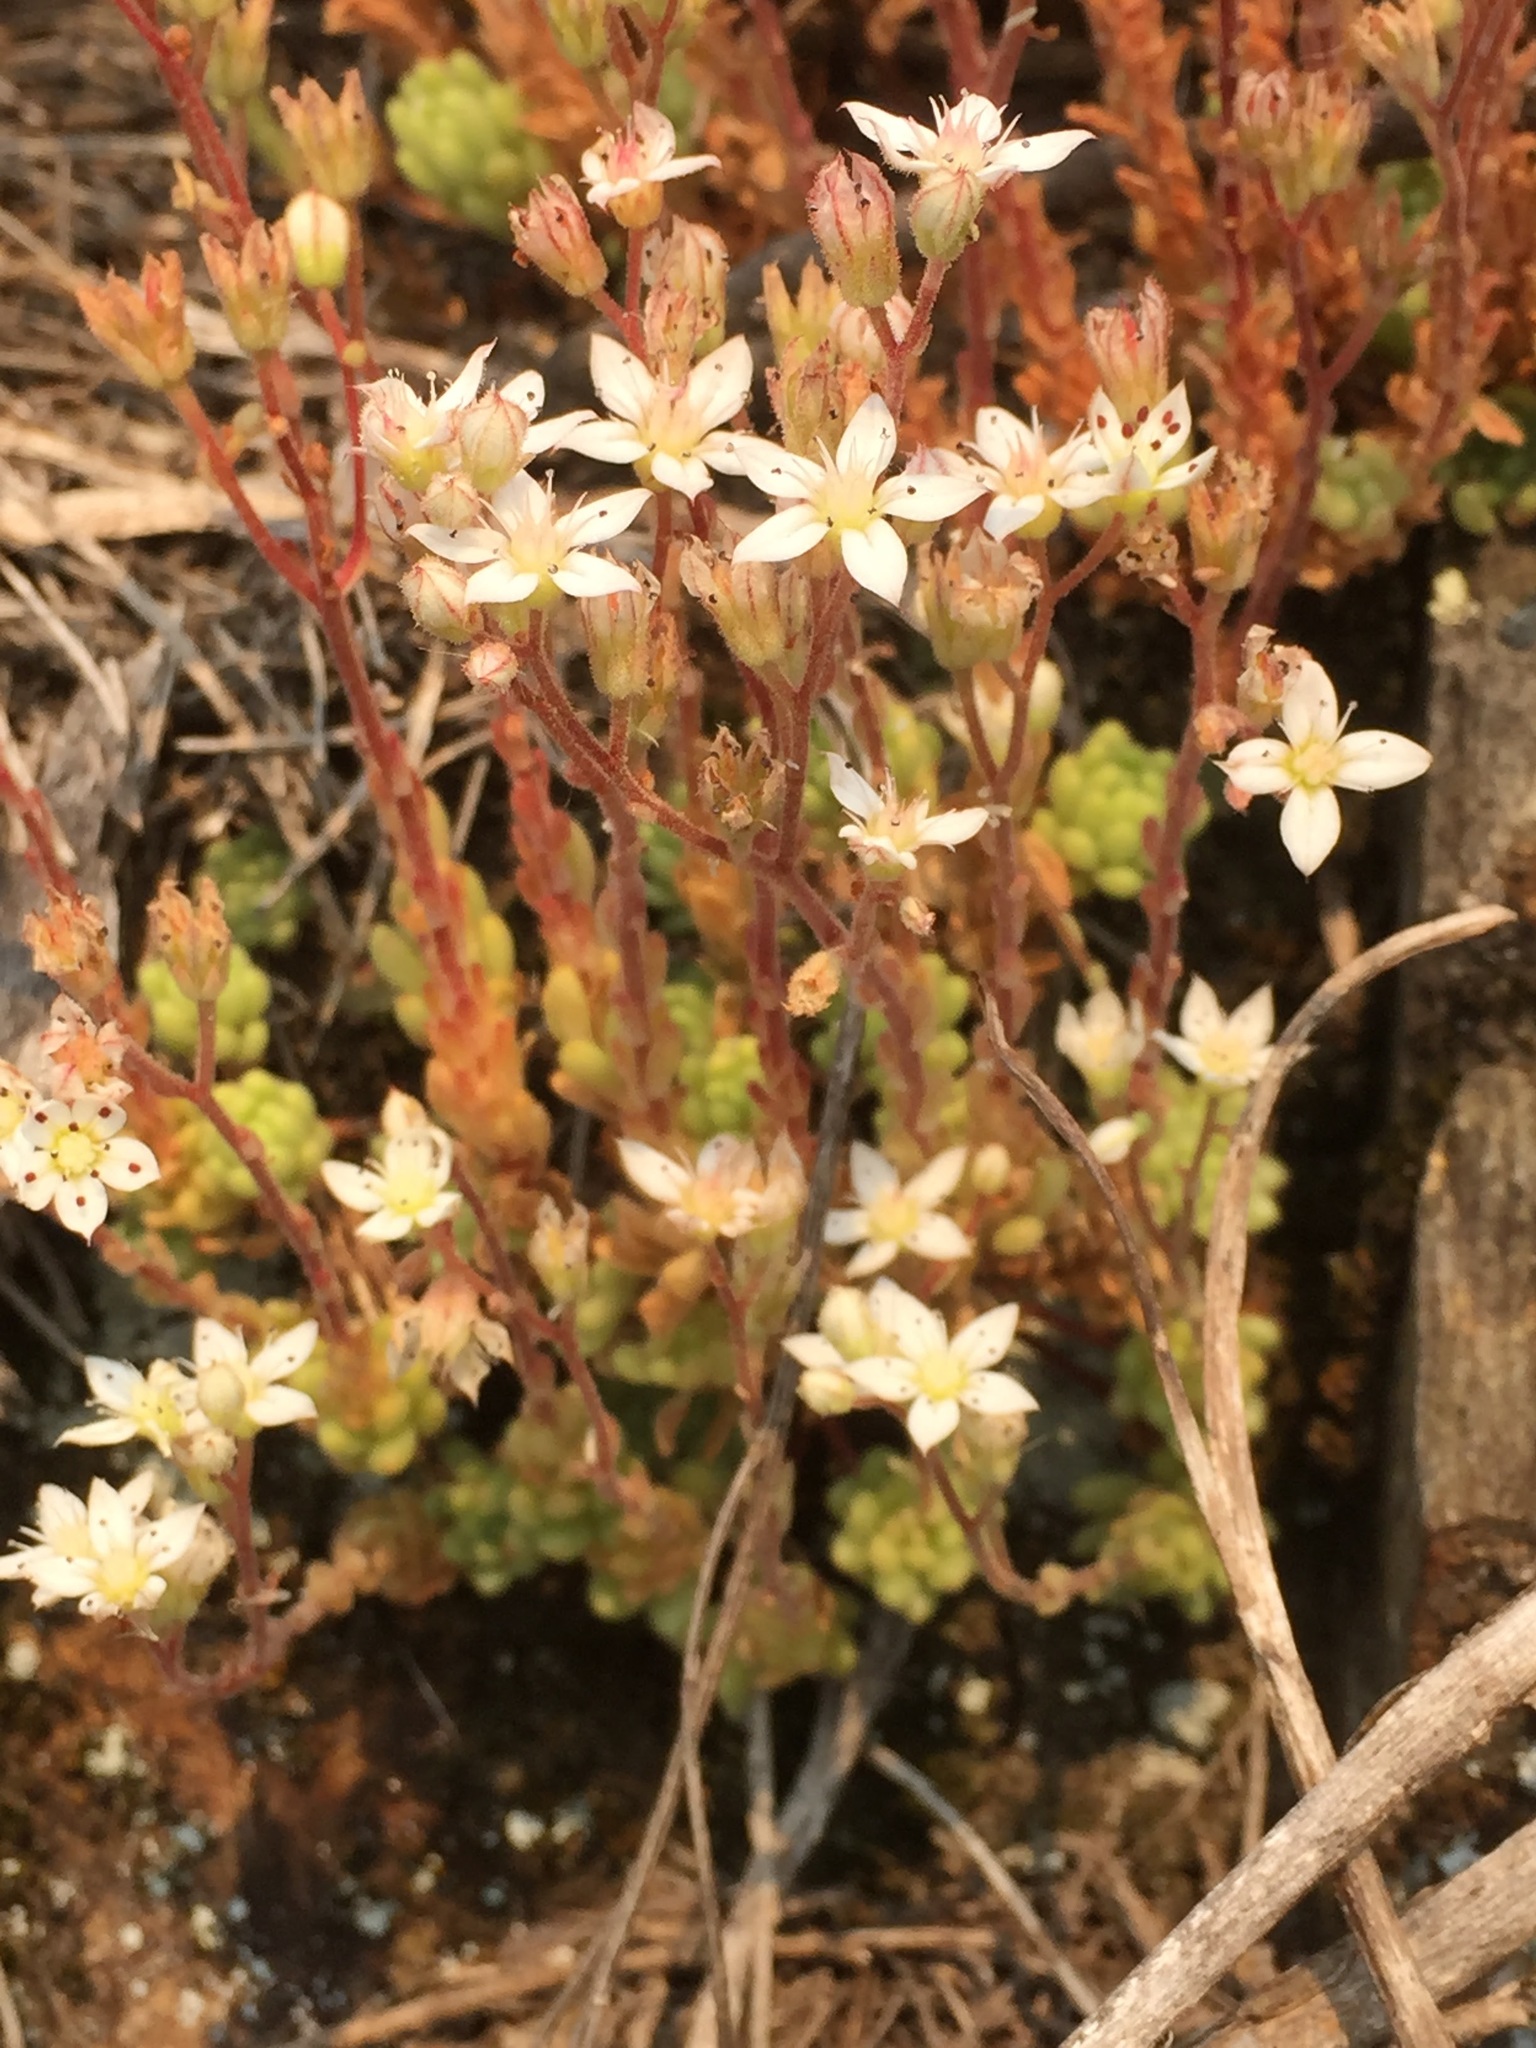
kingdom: Plantae
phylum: Tracheophyta
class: Magnoliopsida
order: Saxifragales
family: Crassulaceae
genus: Sedum
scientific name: Sedum hirsutum
